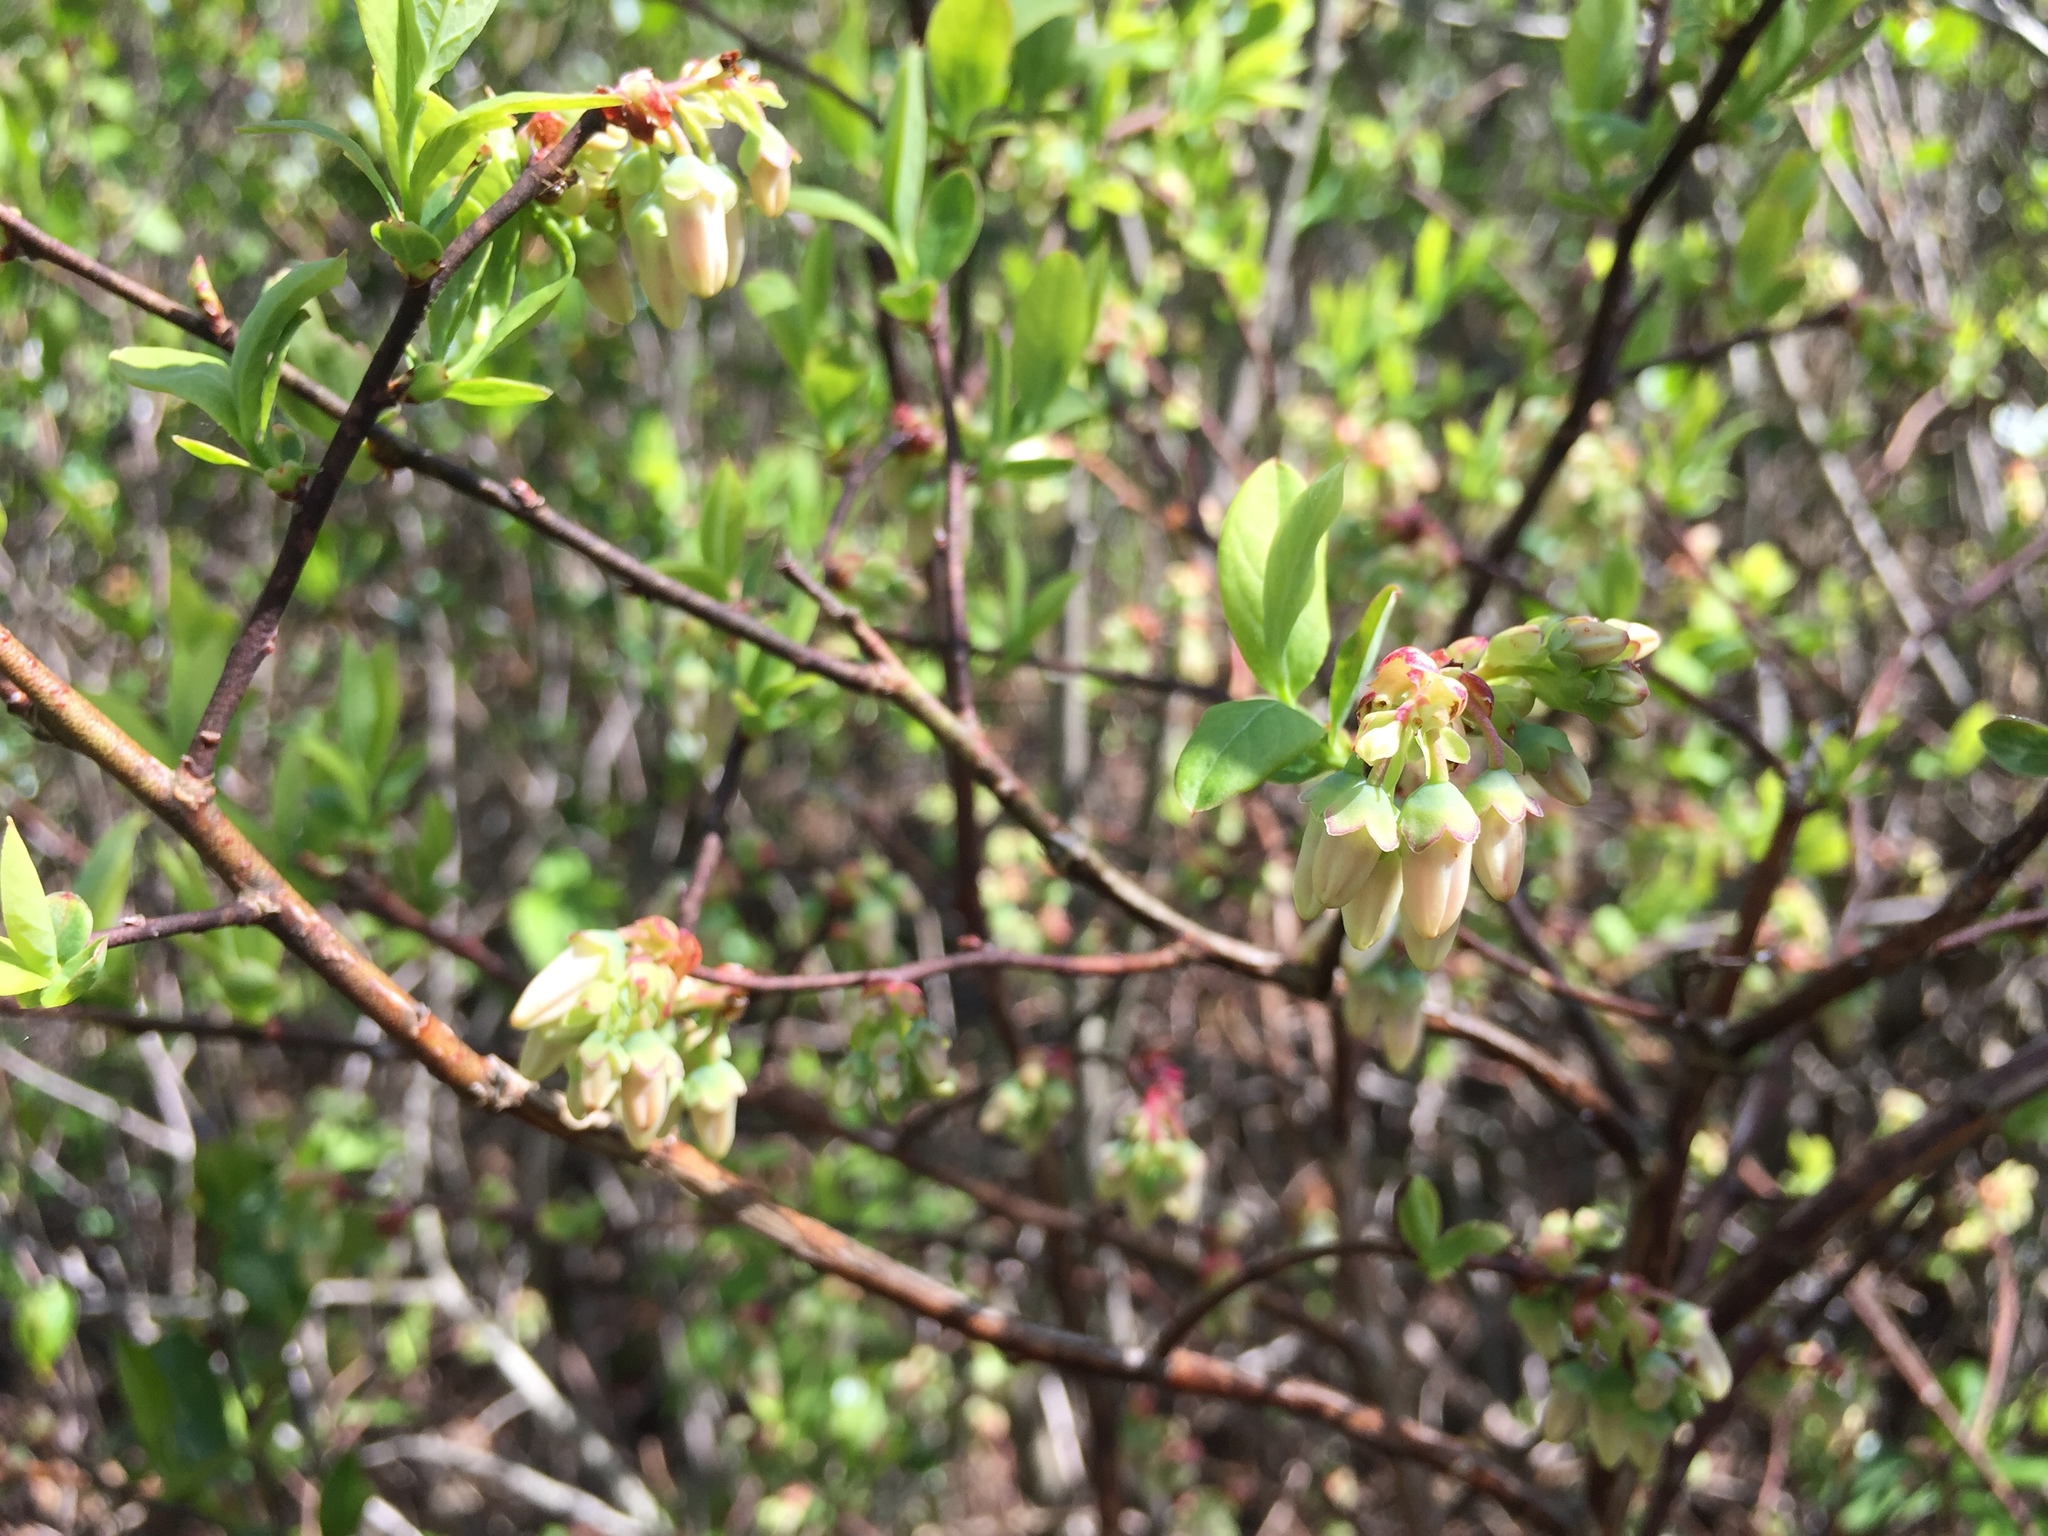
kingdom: Plantae
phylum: Tracheophyta
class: Magnoliopsida
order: Ericales
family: Ericaceae
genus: Vaccinium
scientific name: Vaccinium corymbosum
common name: Blueberry
